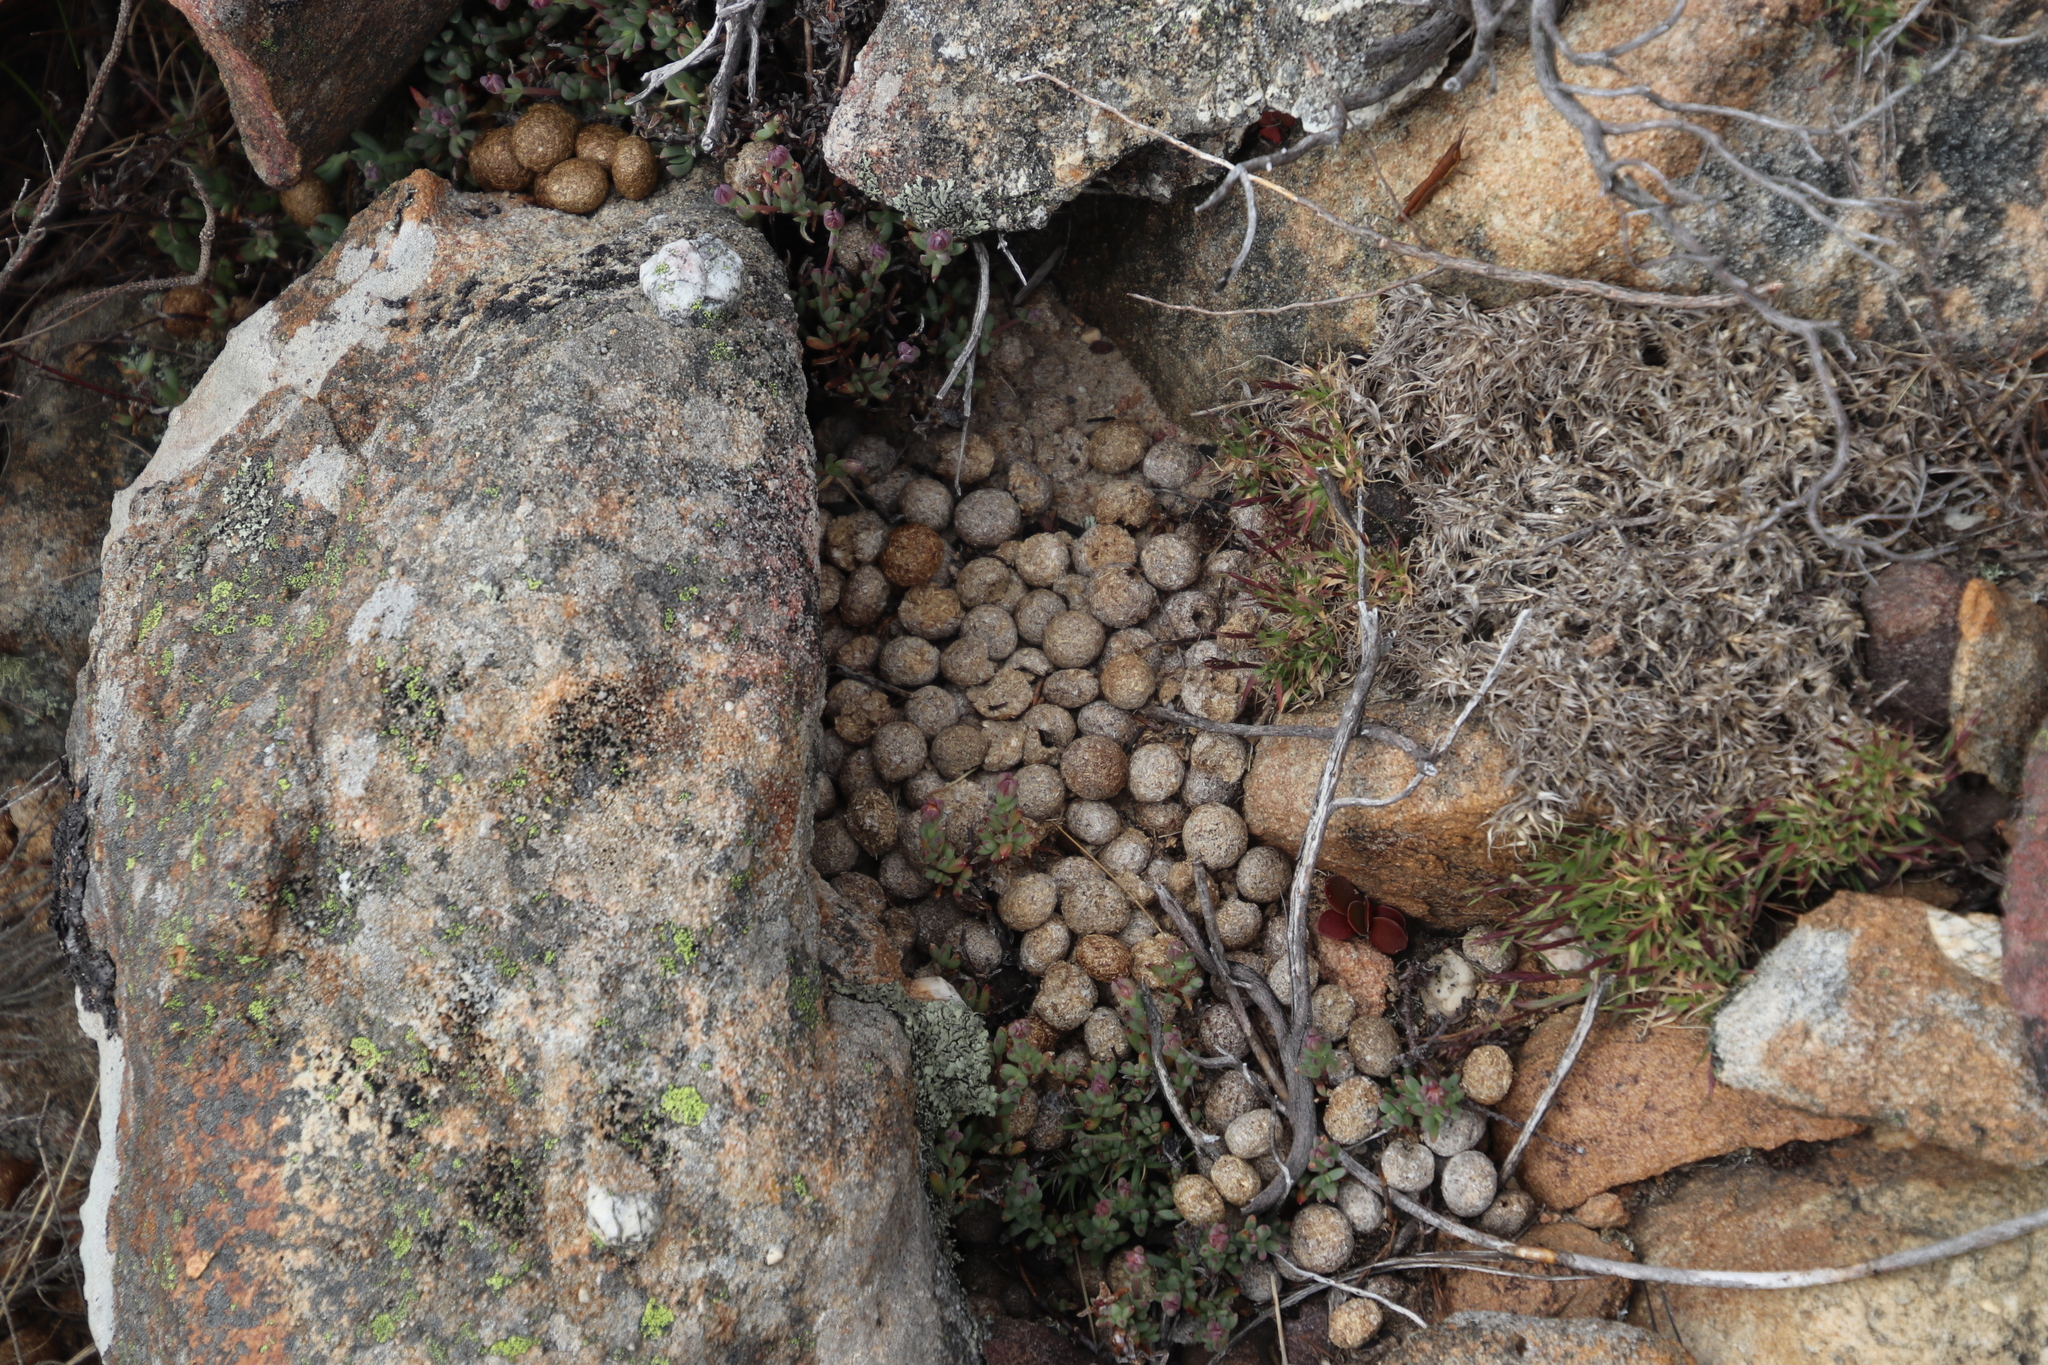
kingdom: Animalia
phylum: Chordata
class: Mammalia
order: Lagomorpha
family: Leporidae
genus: Pronolagus
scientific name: Pronolagus saundersiae
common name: Hewitt's red rock hare
